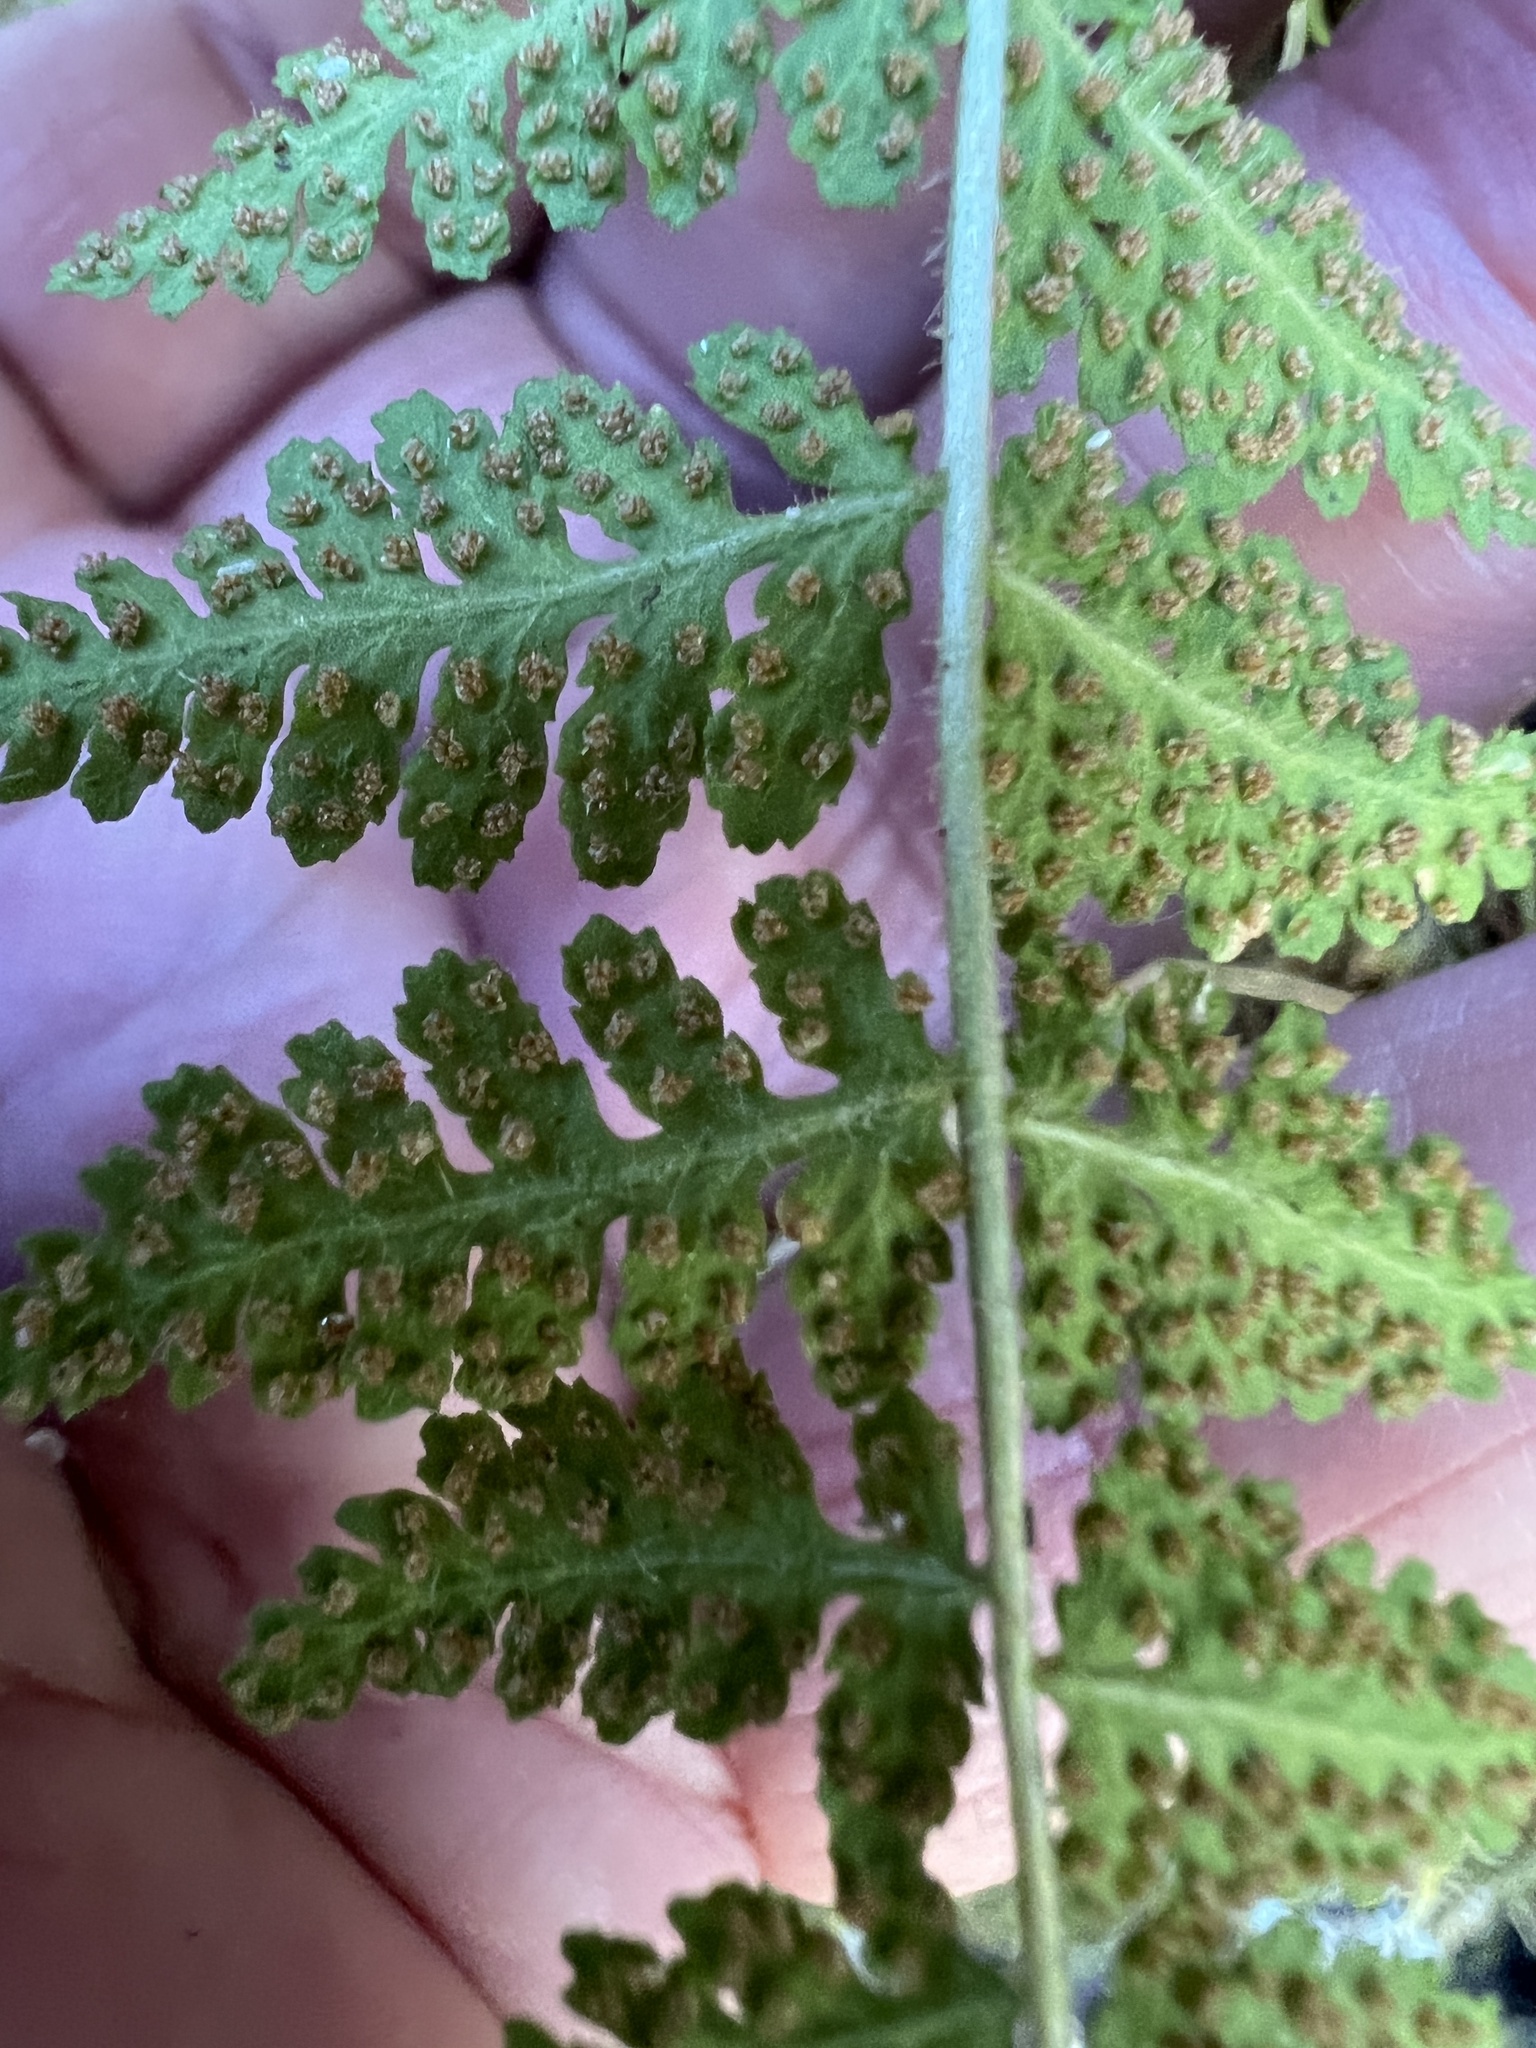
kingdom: Plantae
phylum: Tracheophyta
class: Polypodiopsida
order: Polypodiales
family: Woodsiaceae
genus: Physematium
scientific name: Physematium scopulinum
